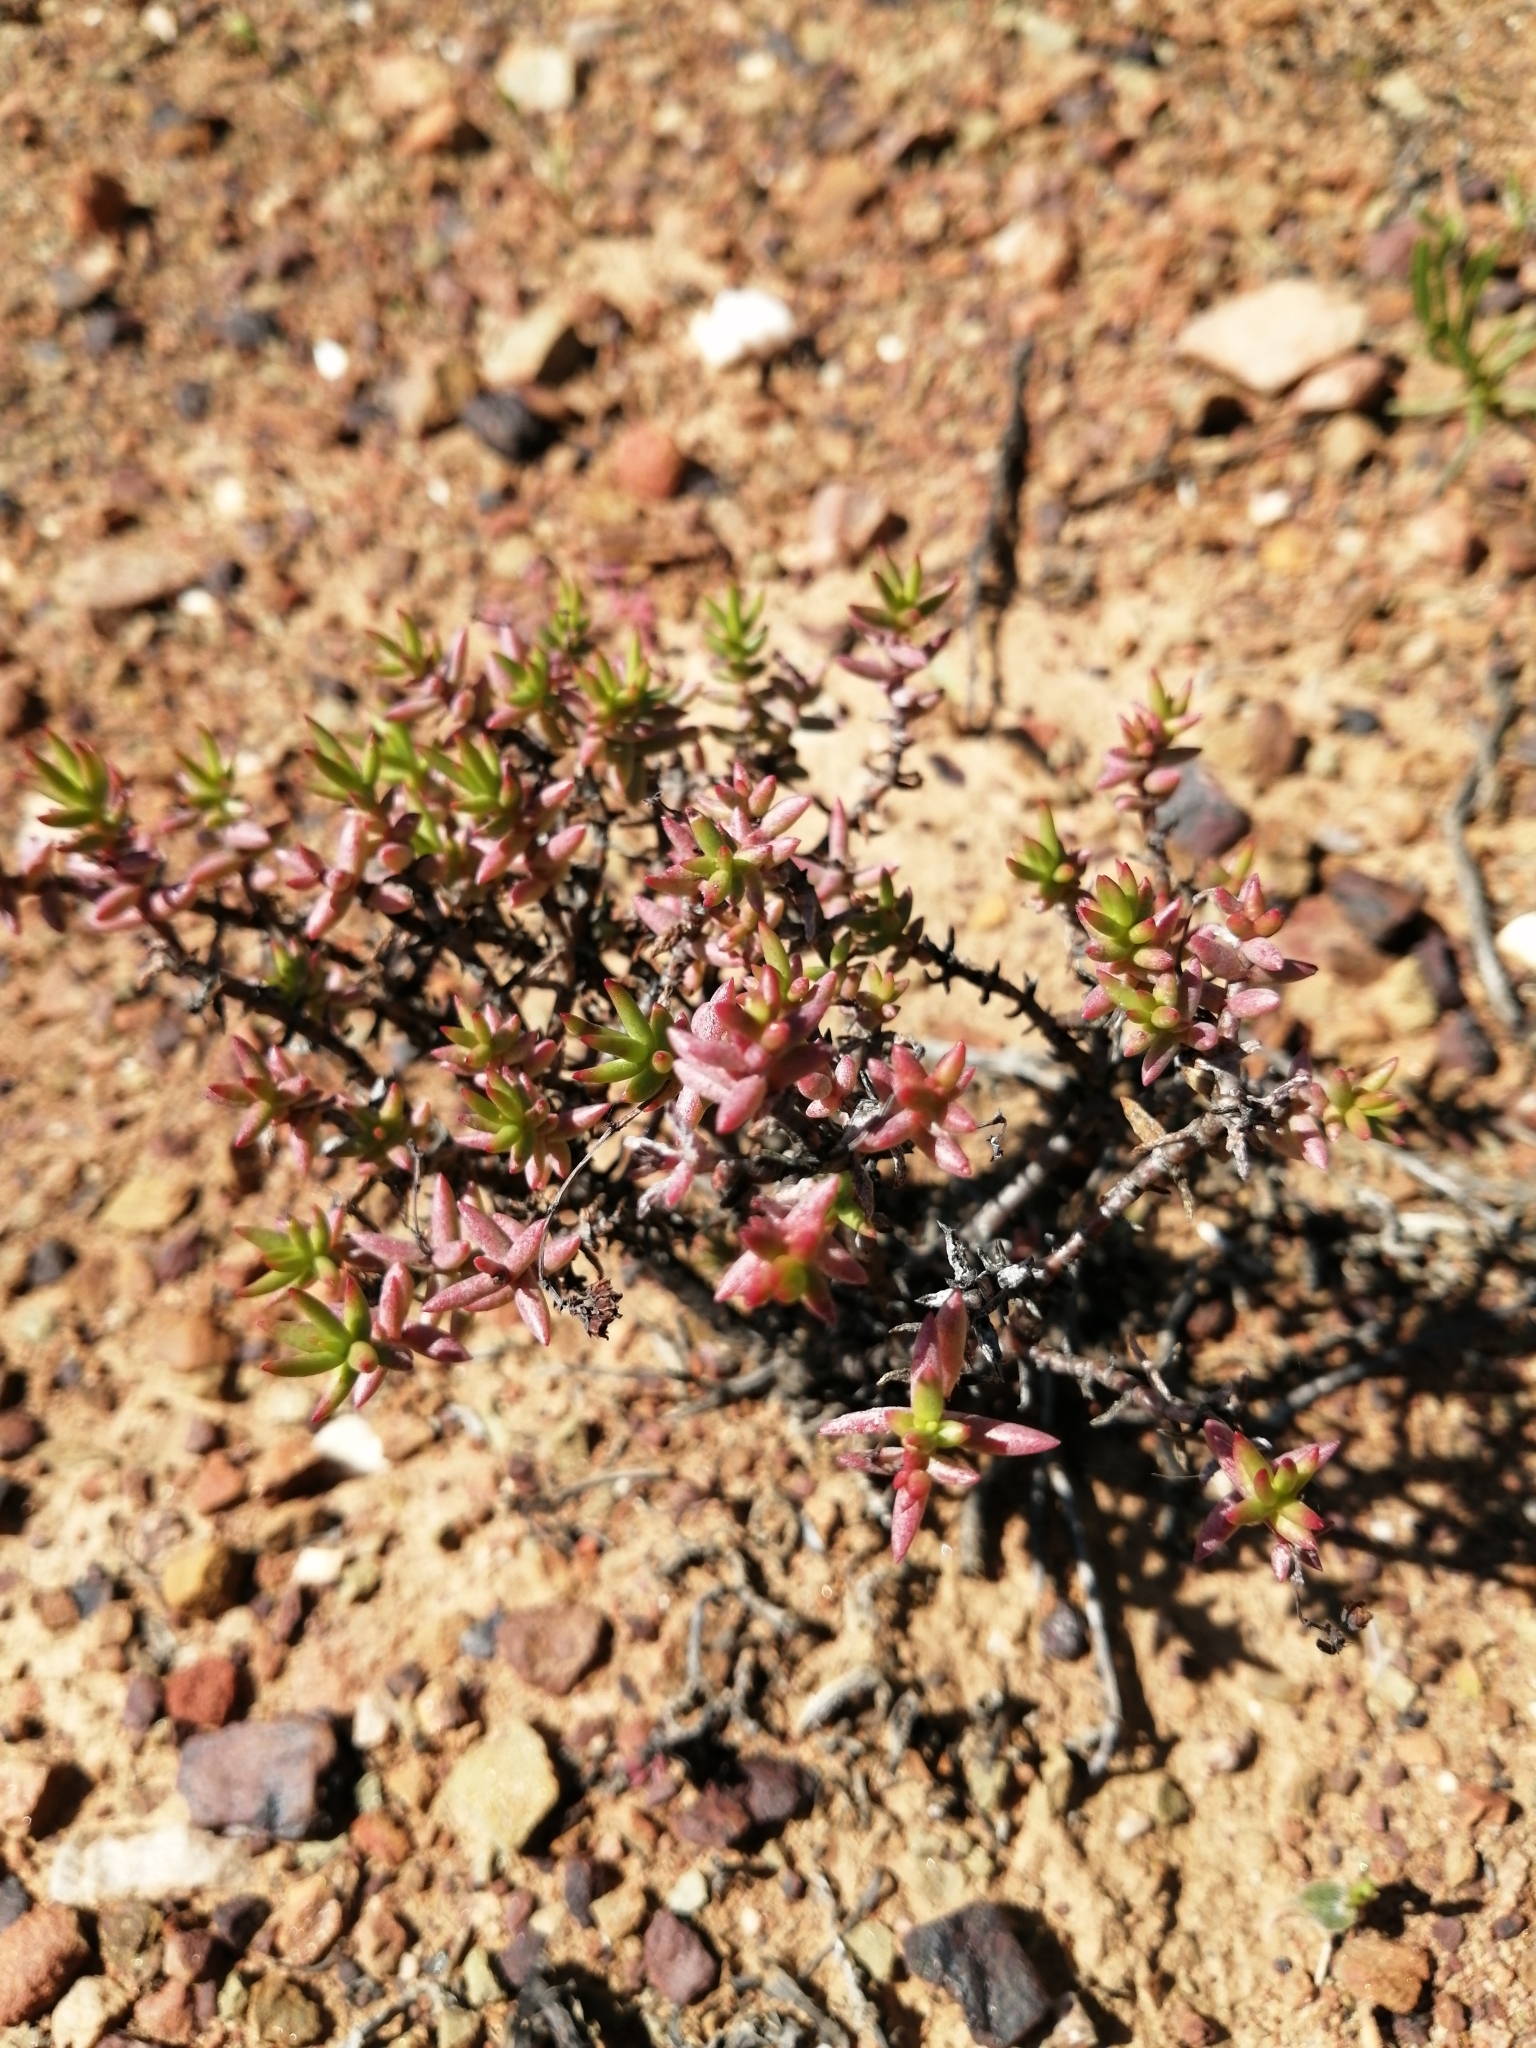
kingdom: Plantae
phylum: Tracheophyta
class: Magnoliopsida
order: Saxifragales
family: Crassulaceae
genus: Crassula
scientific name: Crassula tetragona
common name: Pygmyweed
